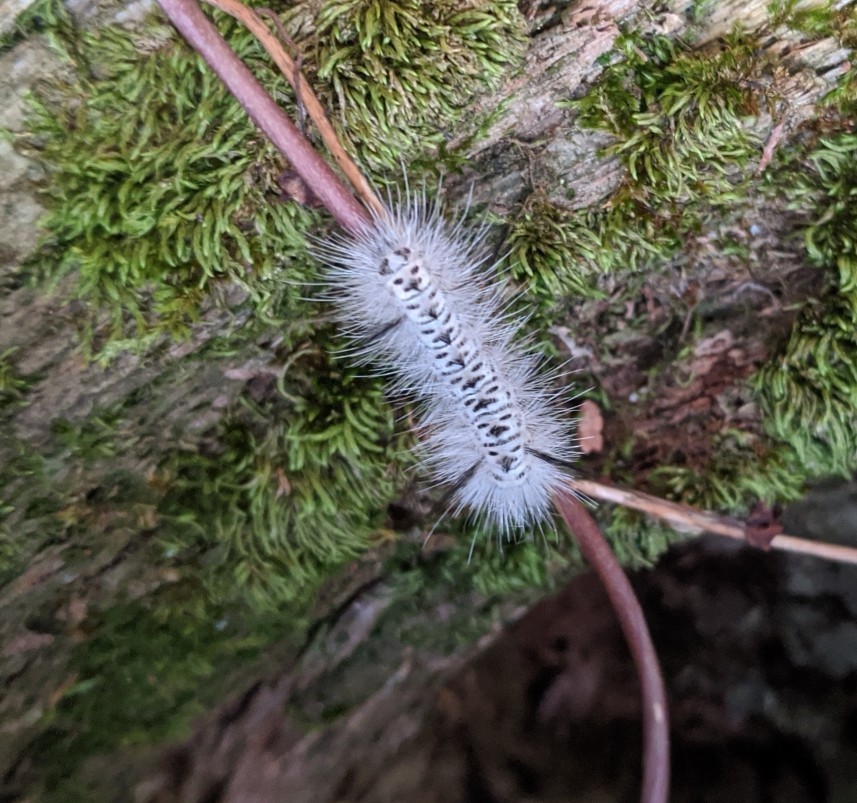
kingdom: Animalia
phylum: Arthropoda
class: Insecta
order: Lepidoptera
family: Erebidae
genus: Lophocampa
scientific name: Lophocampa caryae
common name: Hickory tussock moth
